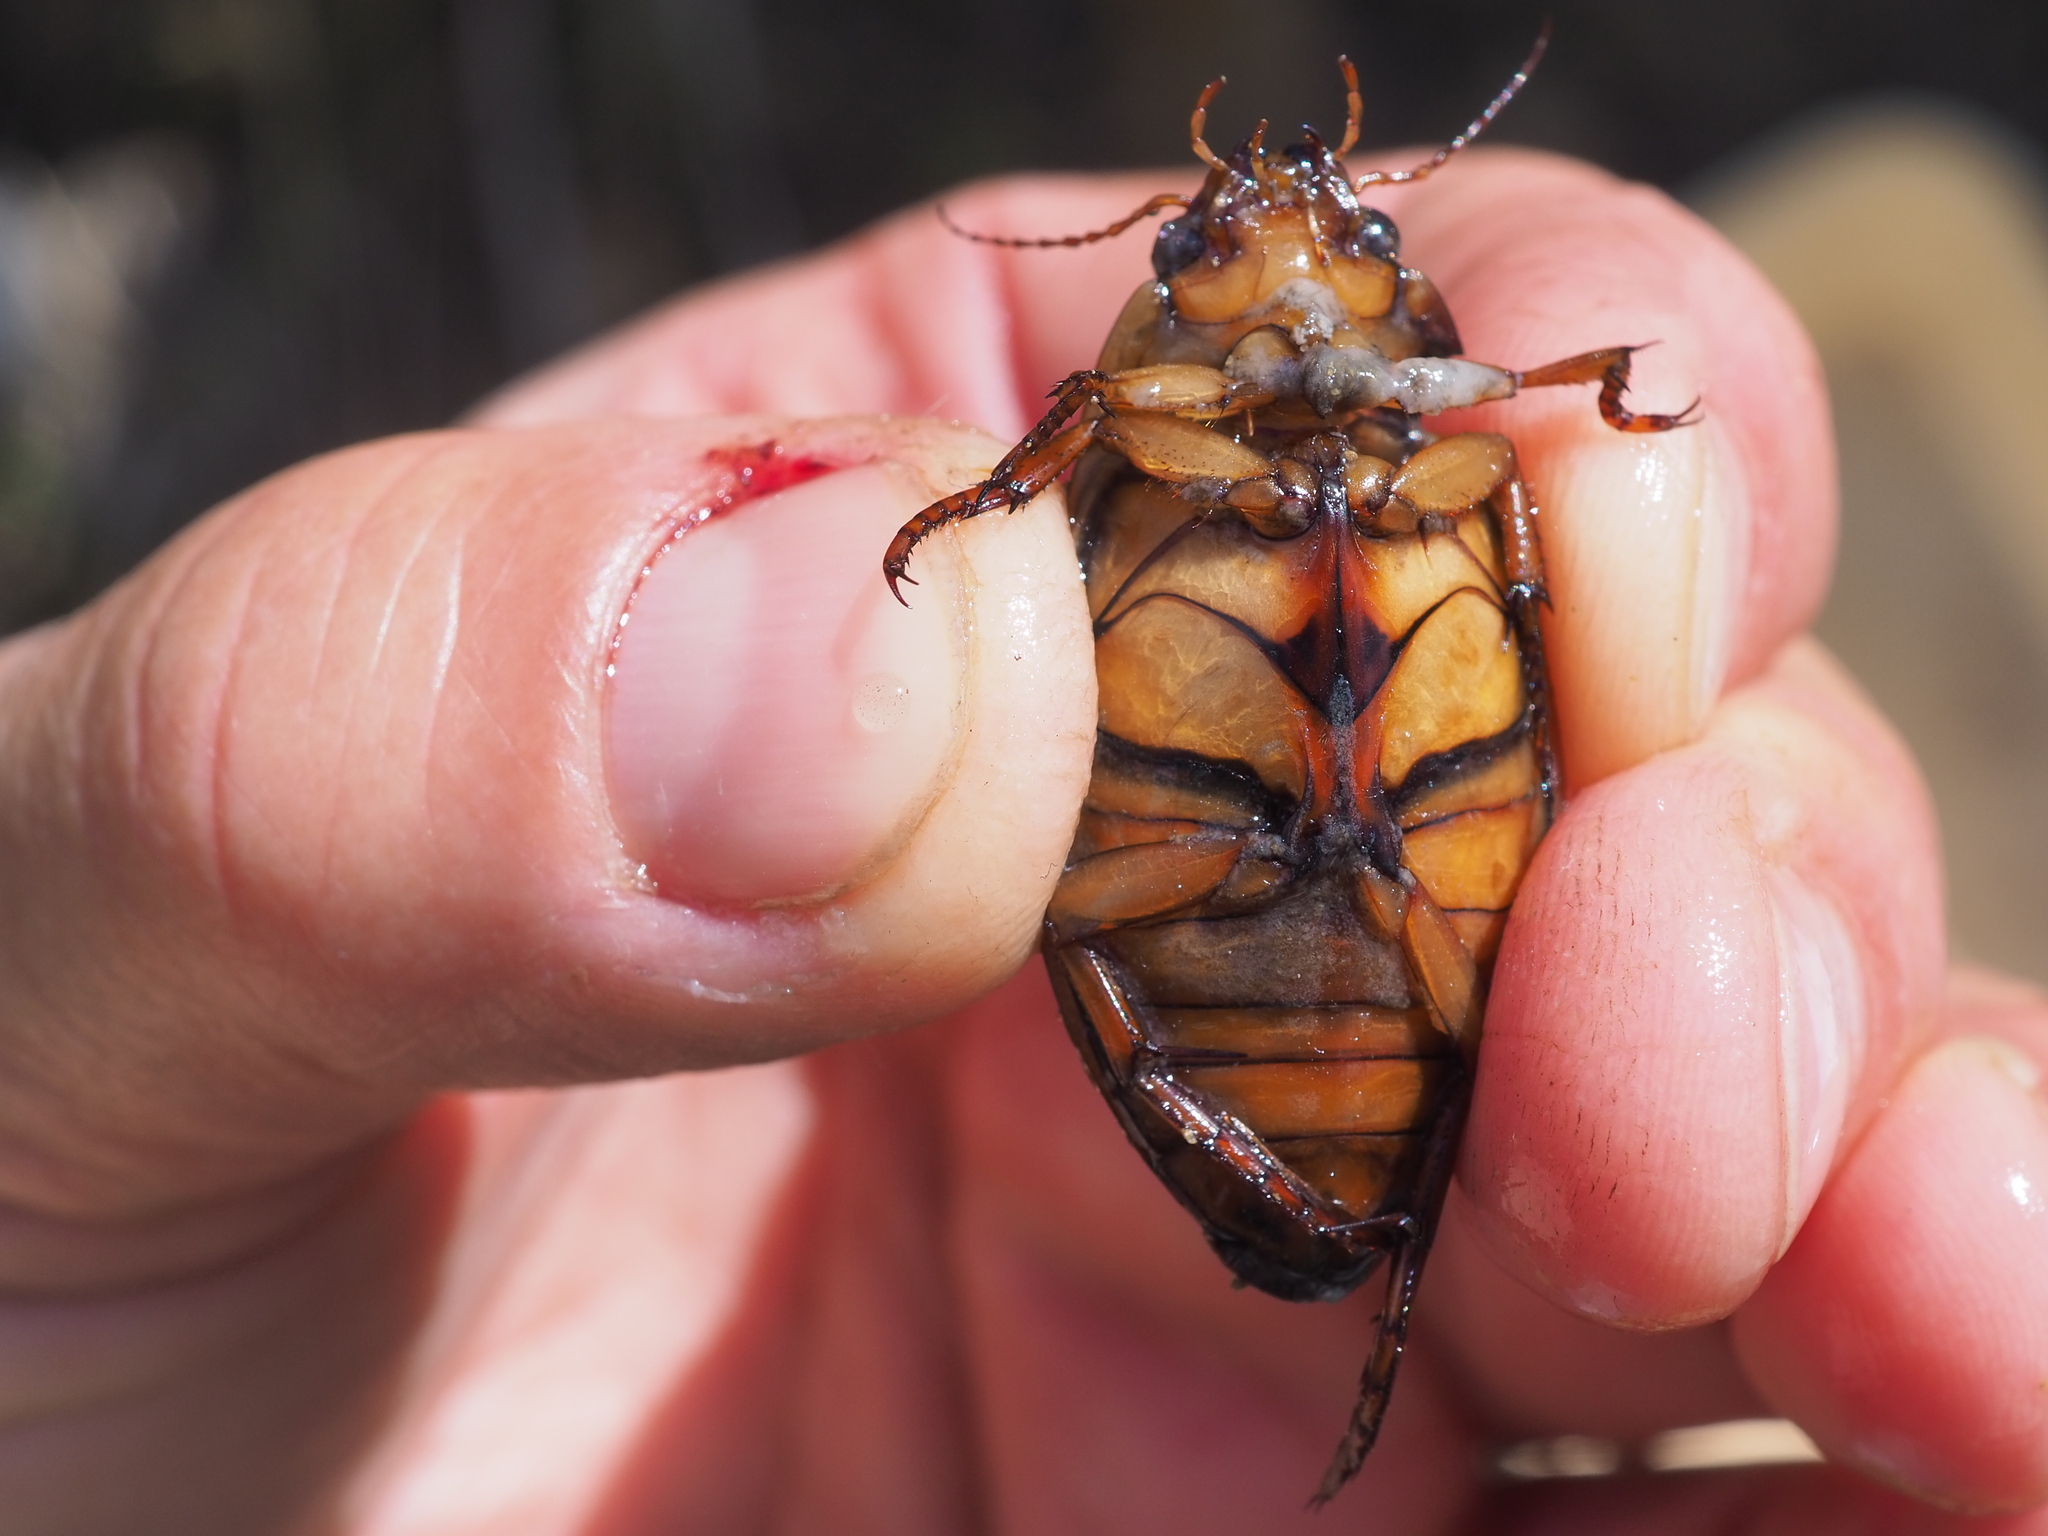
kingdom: Animalia
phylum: Arthropoda
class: Insecta
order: Coleoptera
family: Dytiscidae
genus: Dytiscus
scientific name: Dytiscus marginalis
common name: Great water beetle
